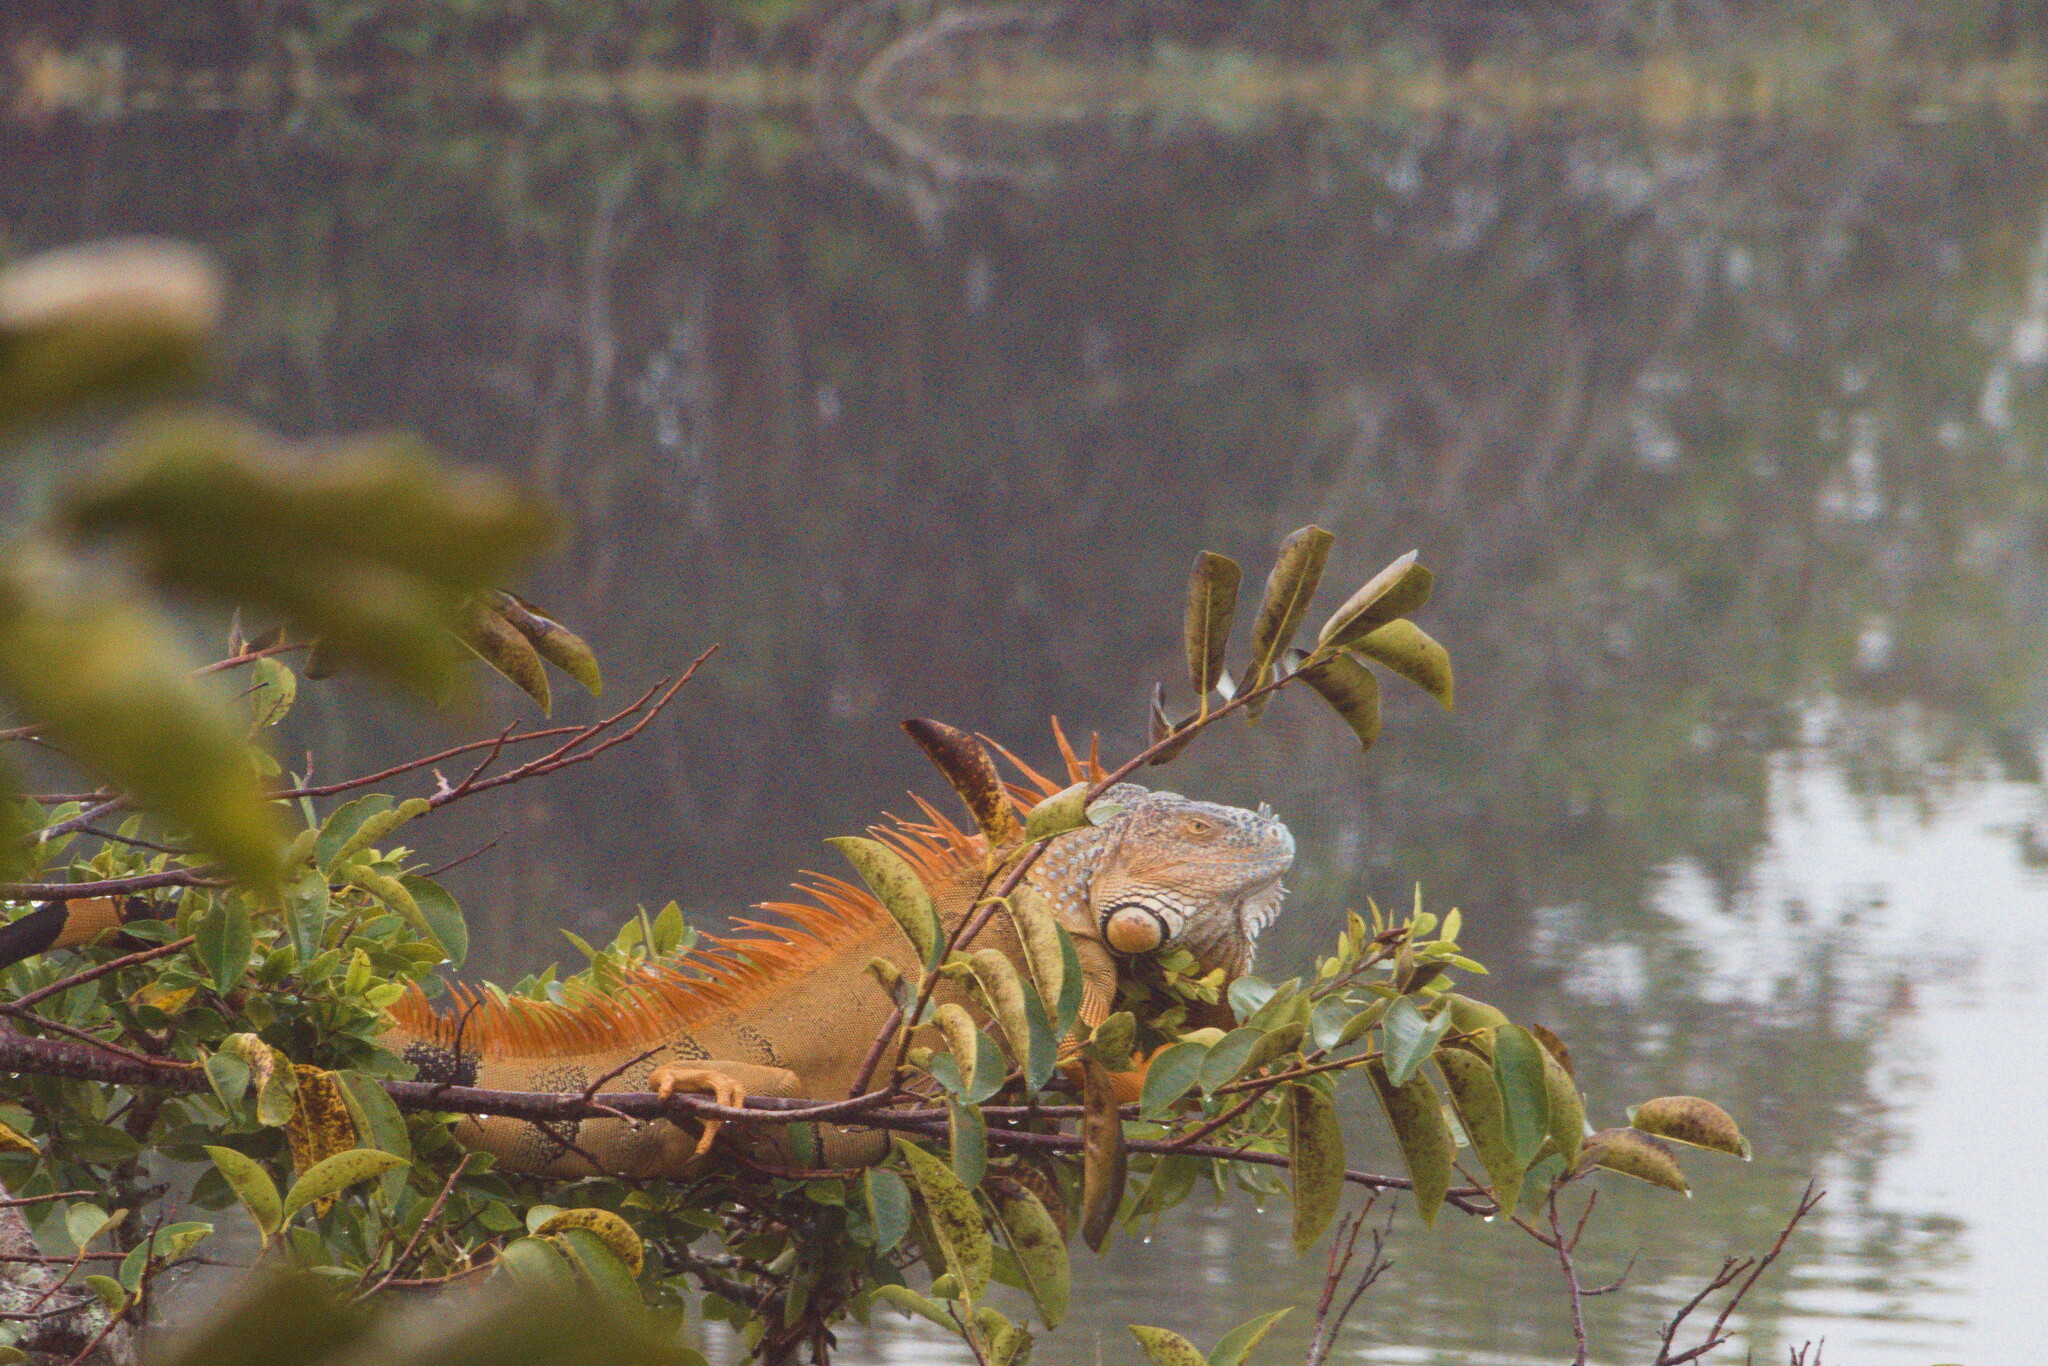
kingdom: Animalia
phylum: Chordata
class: Squamata
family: Iguanidae
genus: Iguana
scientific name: Iguana iguana
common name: Green iguana
